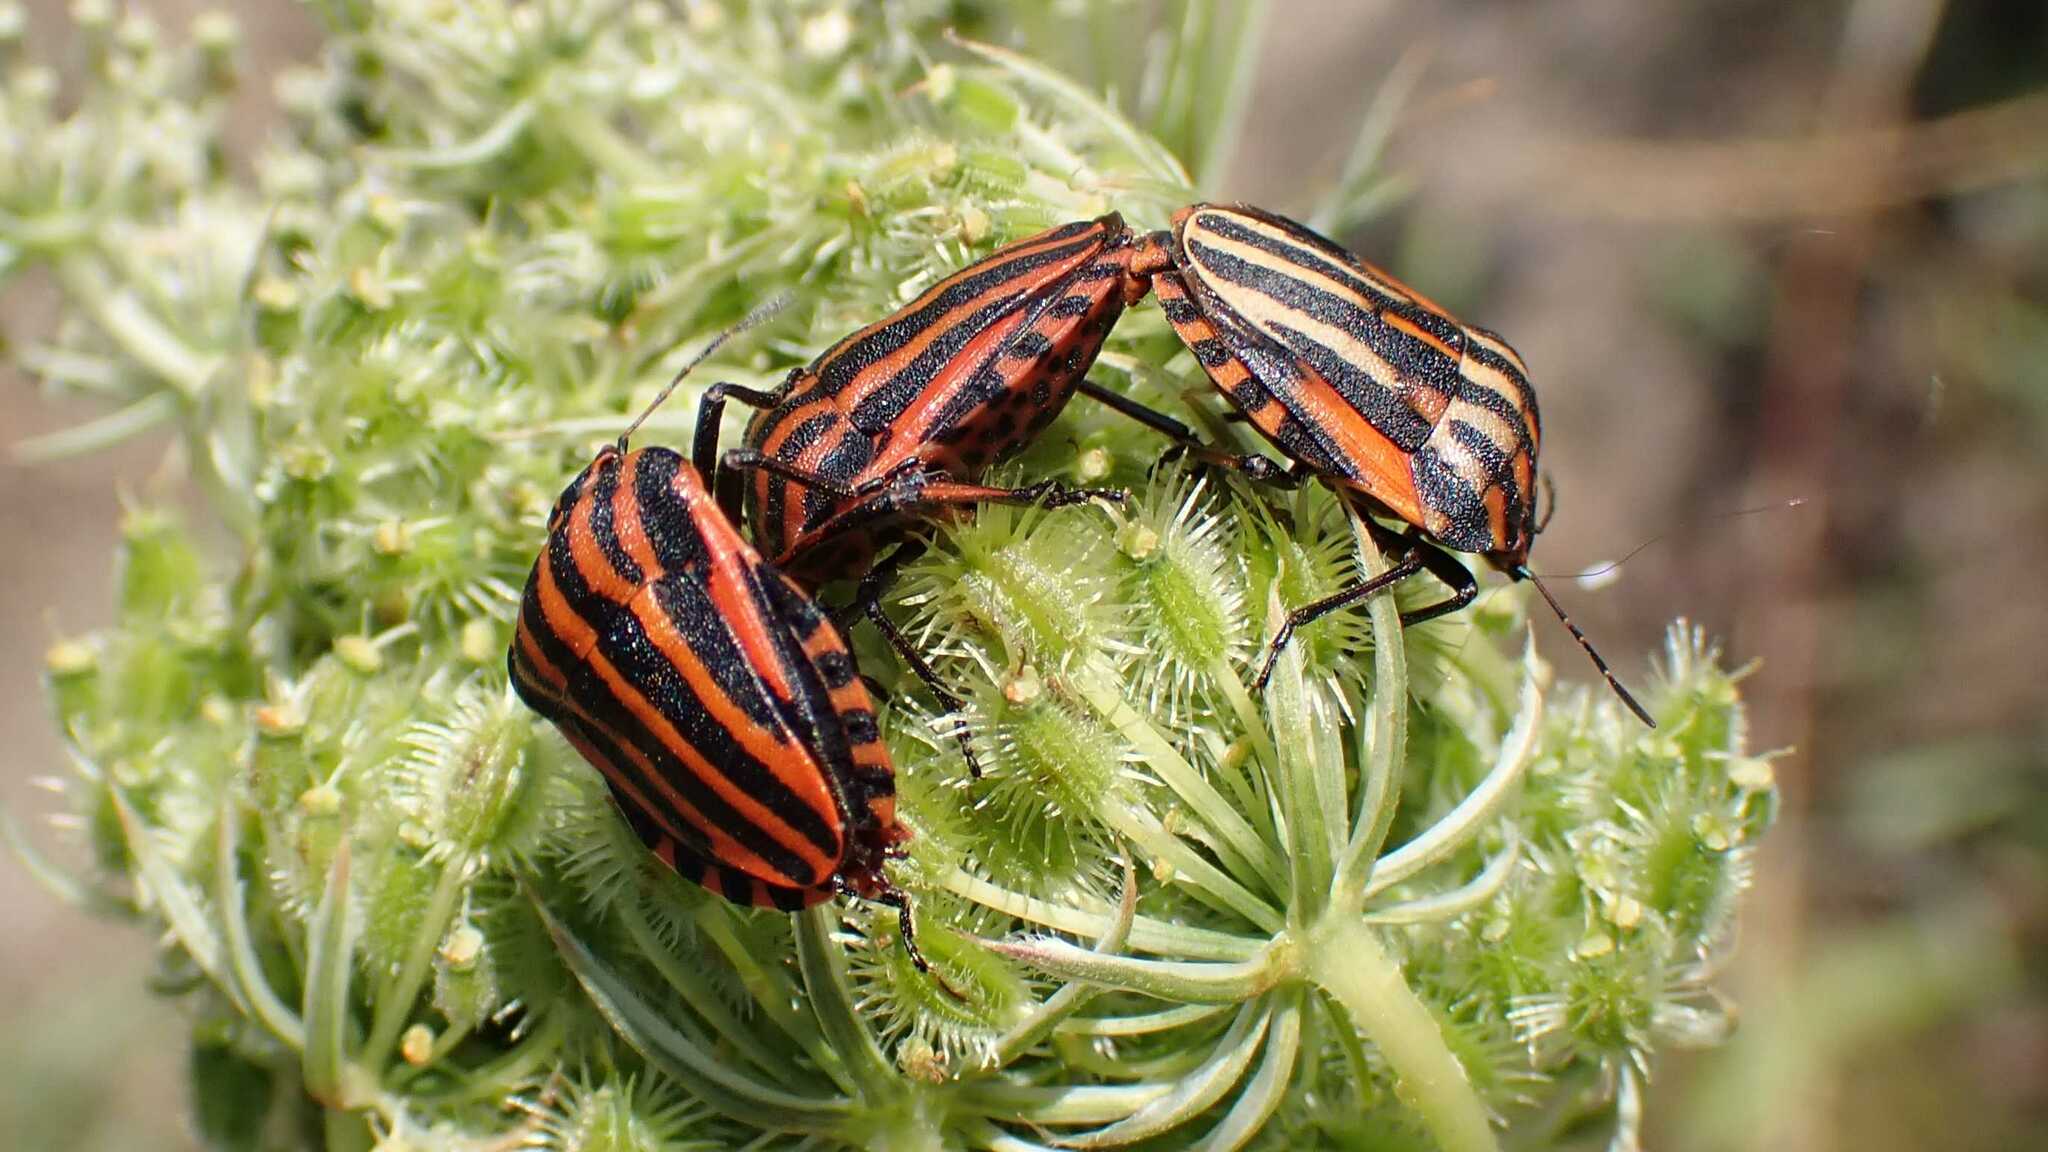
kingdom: Animalia
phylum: Arthropoda
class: Insecta
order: Hemiptera
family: Pentatomidae
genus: Graphosoma
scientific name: Graphosoma italicum
